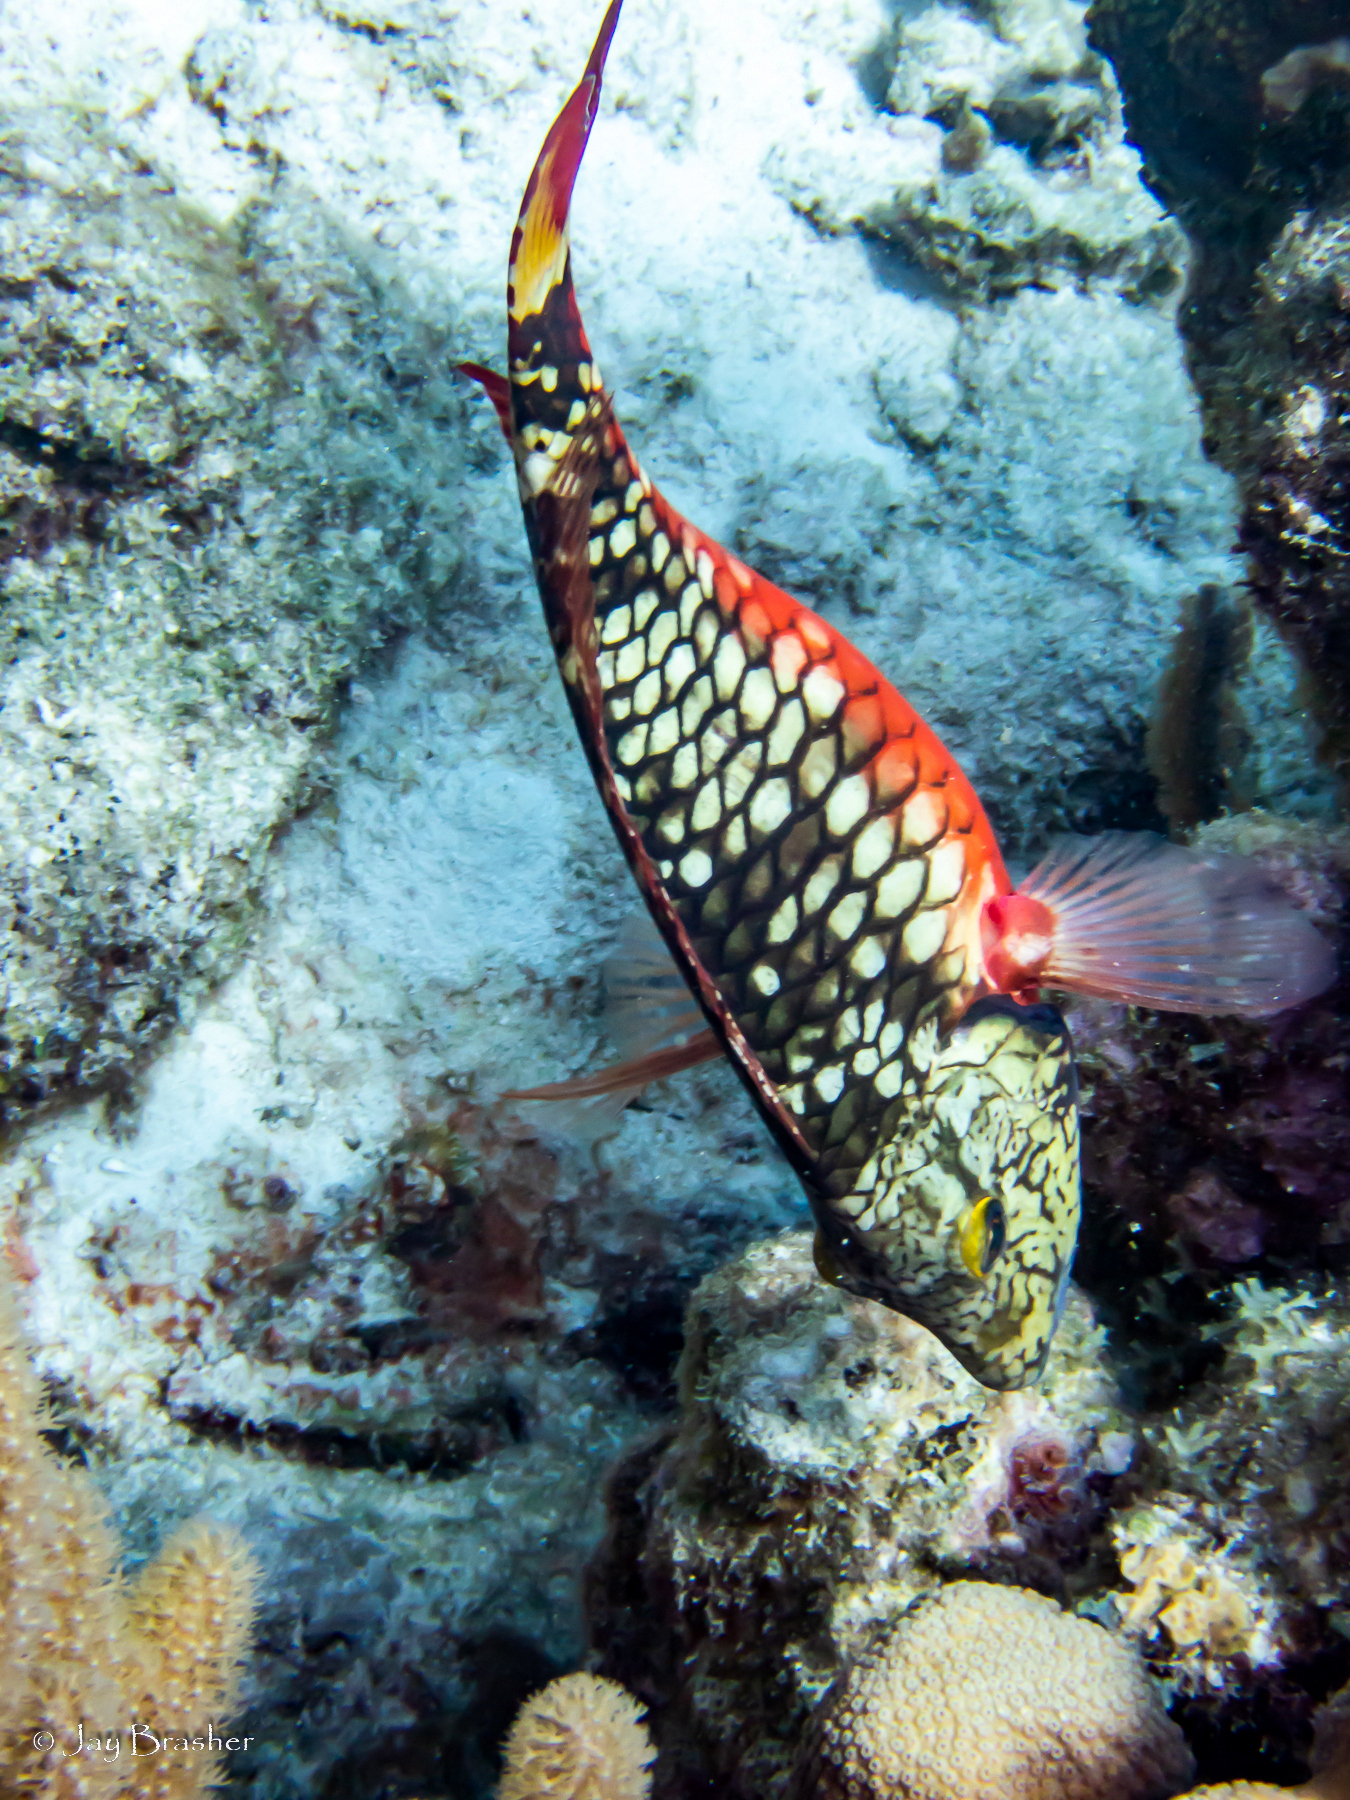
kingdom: Animalia
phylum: Chordata
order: Perciformes
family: Scaridae
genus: Sparisoma
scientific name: Sparisoma viride
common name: Stoplight parrotfish
